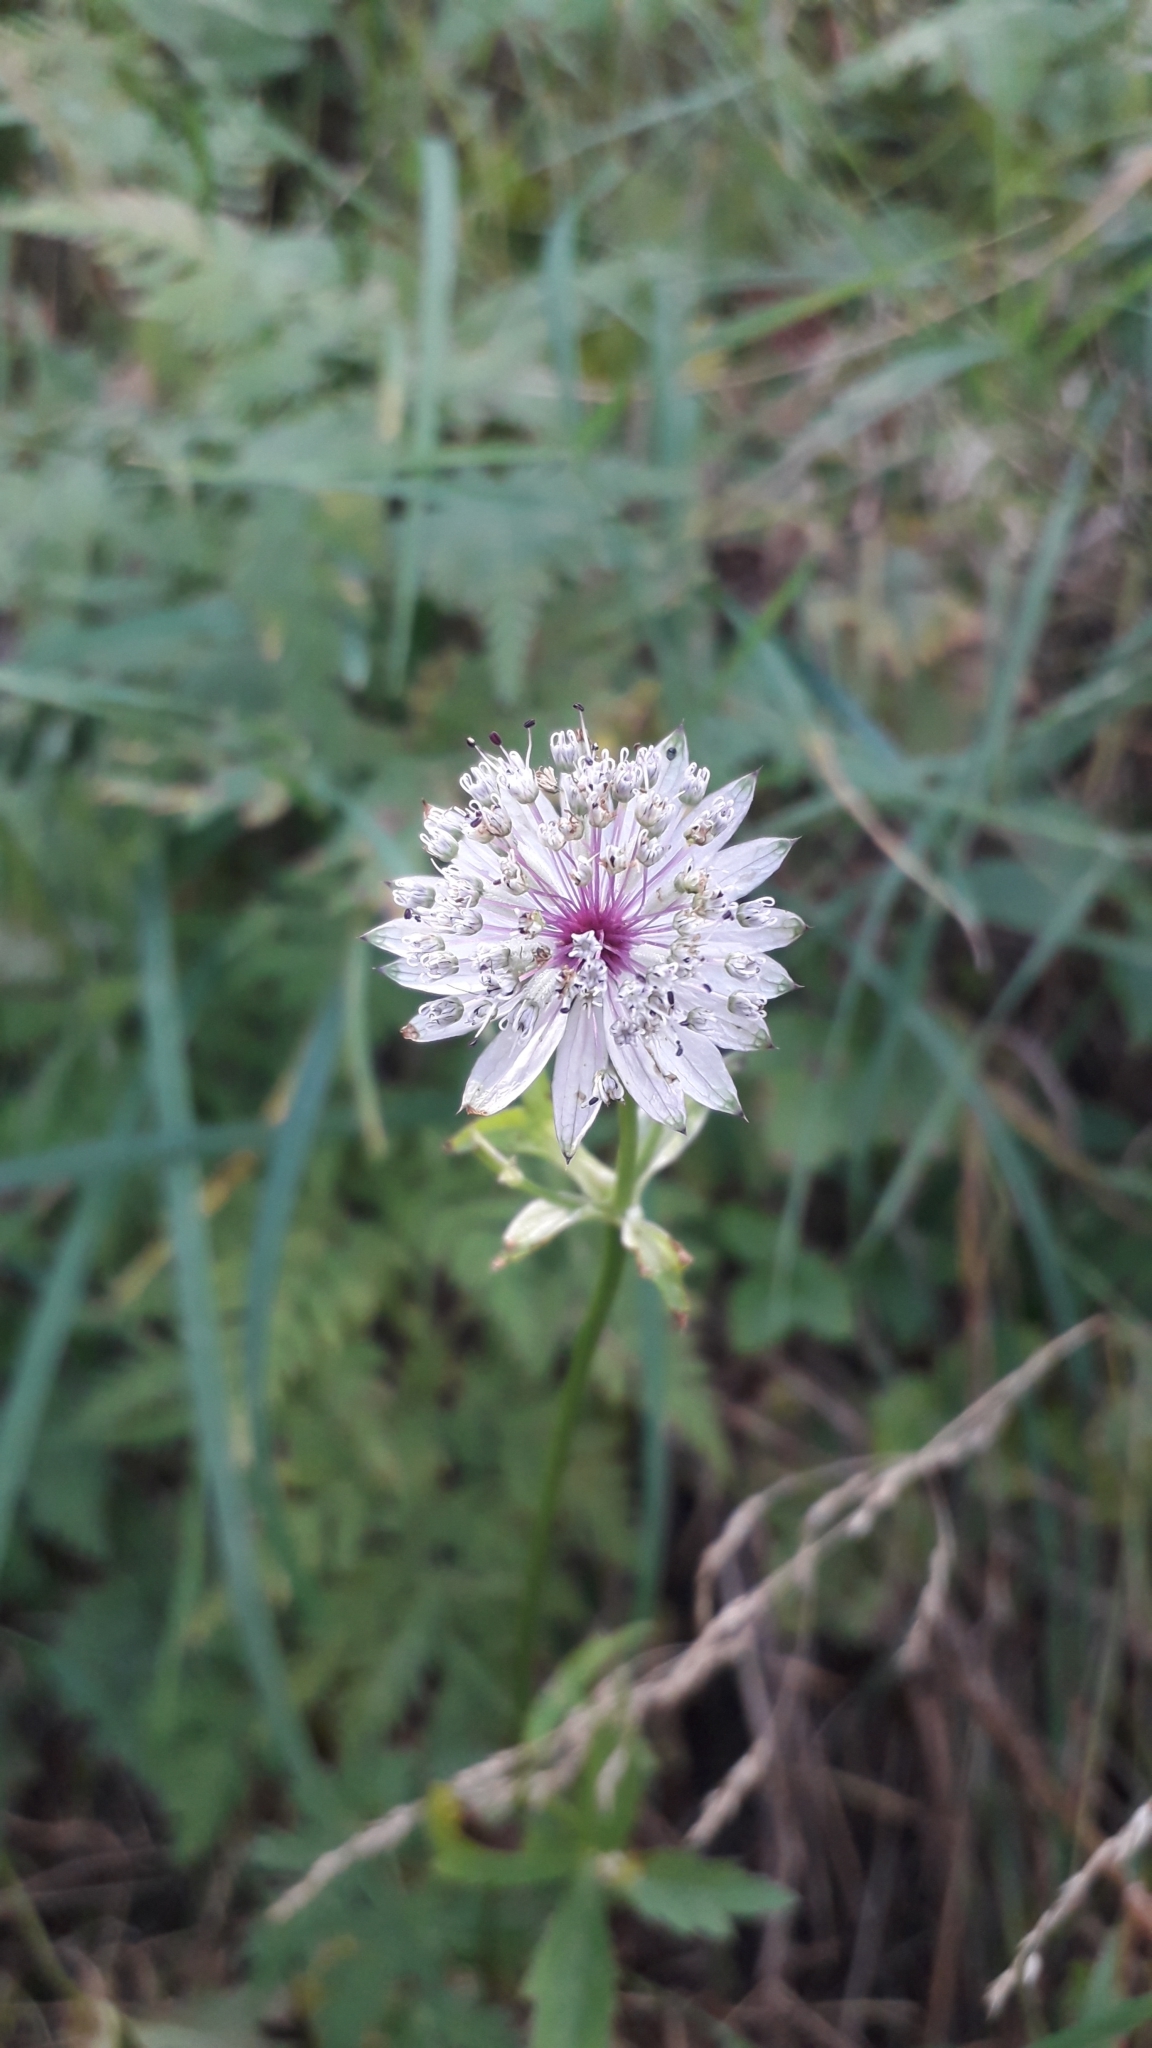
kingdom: Plantae
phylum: Tracheophyta
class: Magnoliopsida
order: Apiales
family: Apiaceae
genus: Astrantia
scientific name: Astrantia major
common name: Greater masterwort
